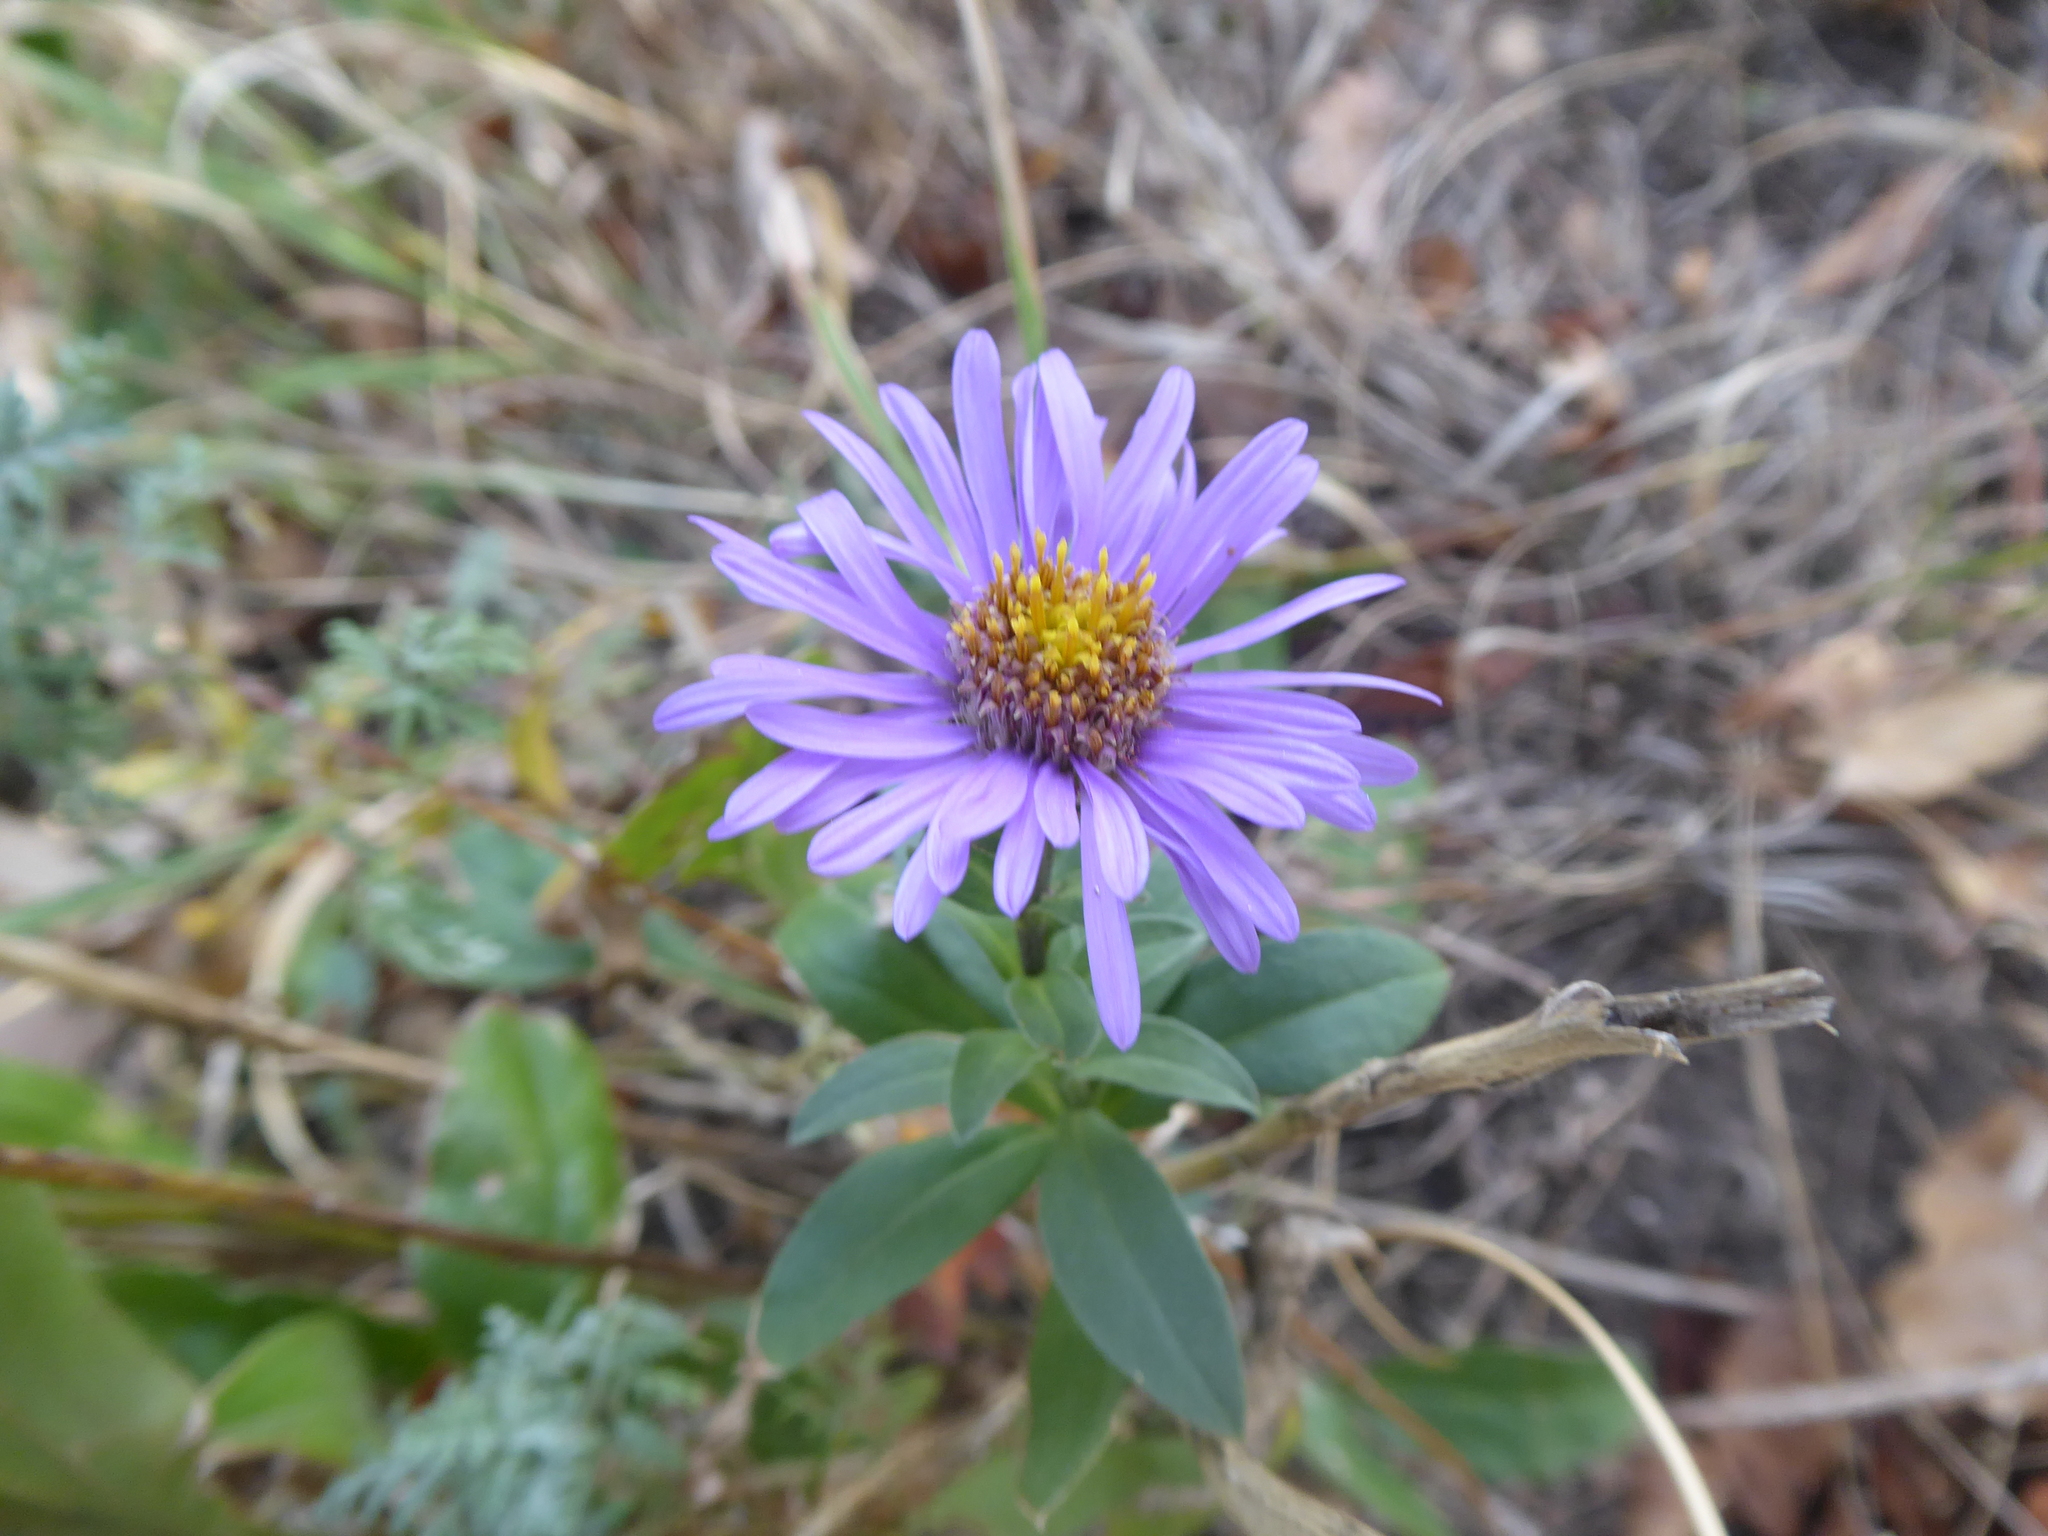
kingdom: Plantae
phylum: Tracheophyta
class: Magnoliopsida
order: Asterales
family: Asteraceae
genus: Aster
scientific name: Aster amellus
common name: European michaelmas daisy
